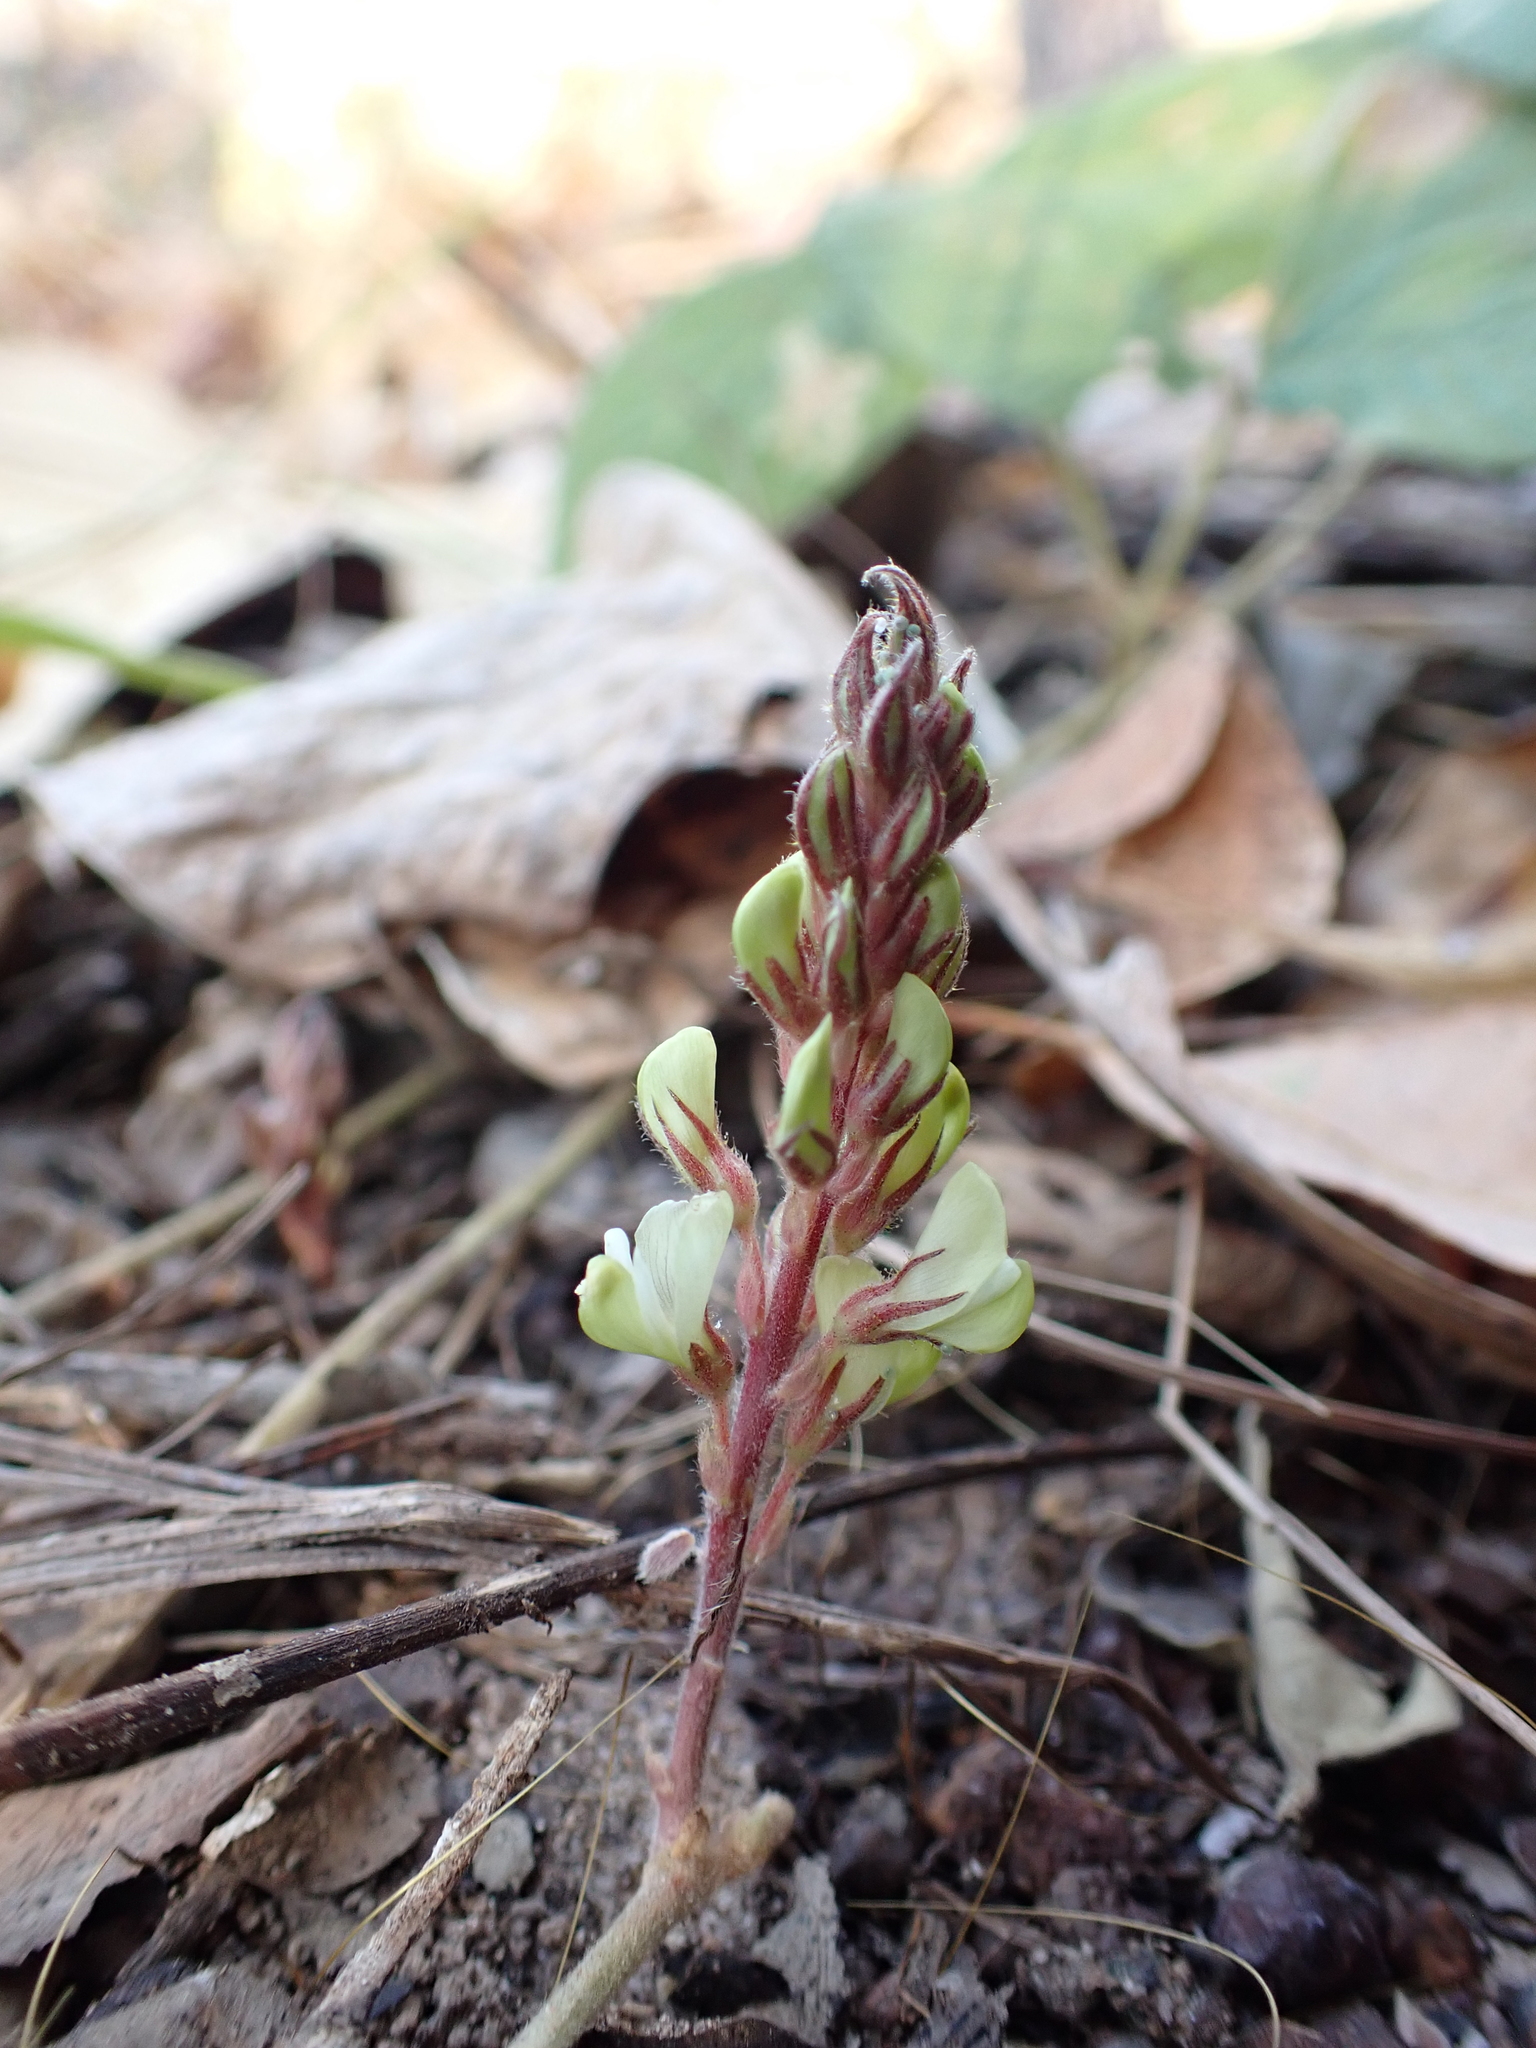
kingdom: Plantae
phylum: Tracheophyta
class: Magnoliopsida
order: Fabales
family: Fabaceae
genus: Flemingia
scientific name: Flemingia parviflora
